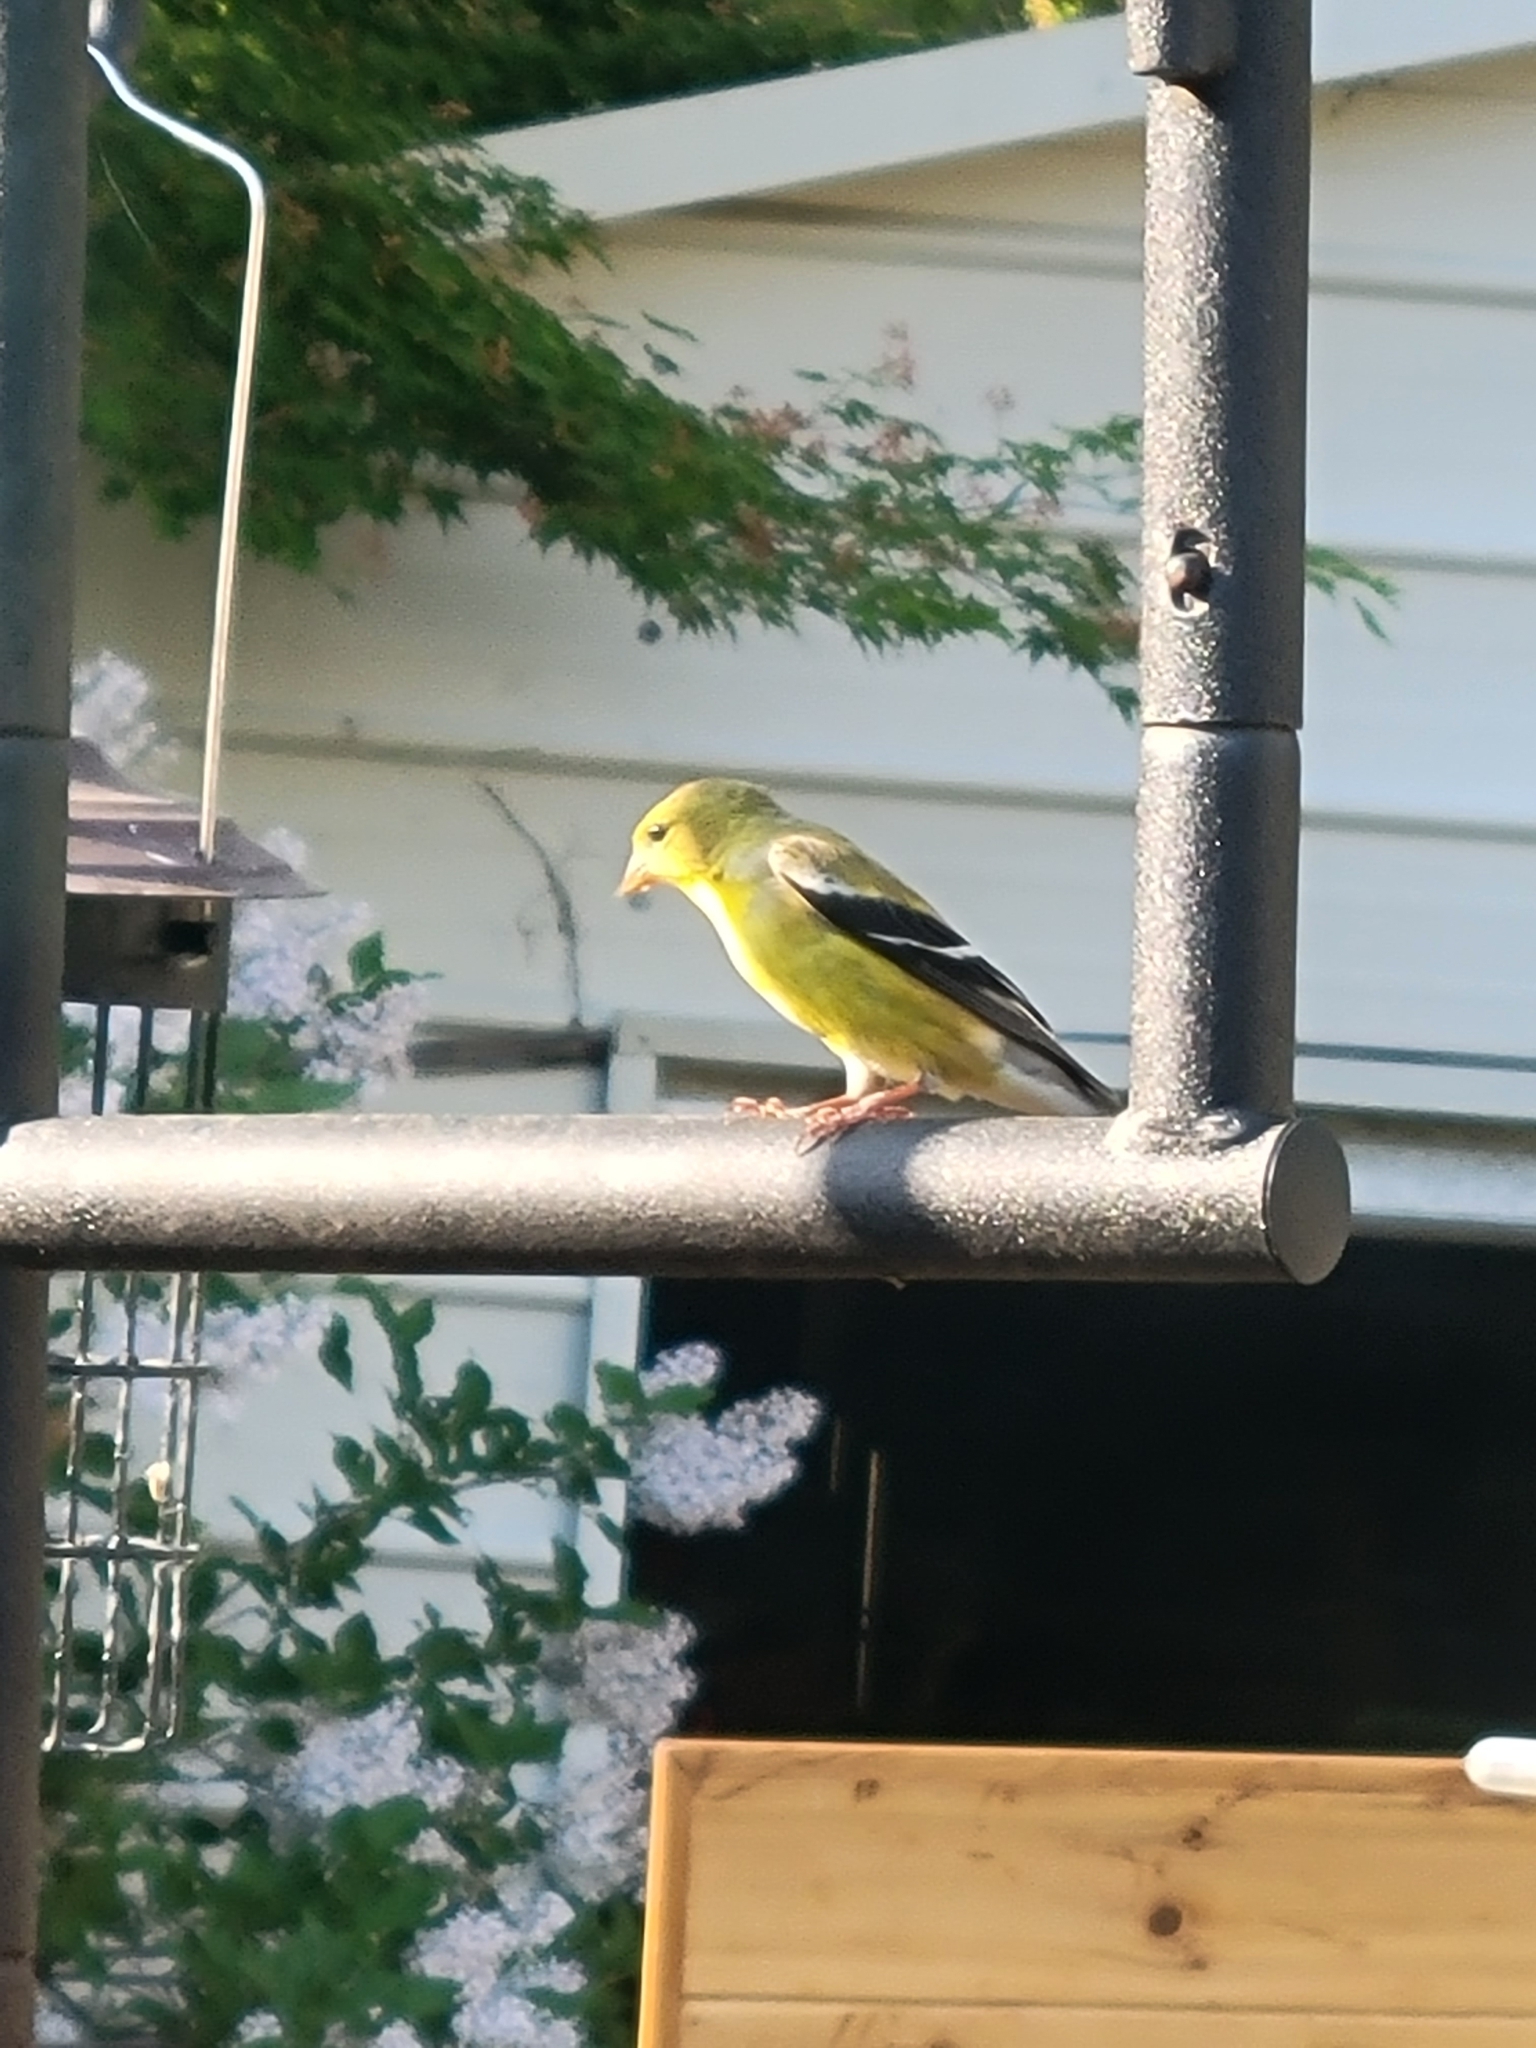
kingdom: Animalia
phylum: Chordata
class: Aves
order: Passeriformes
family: Fringillidae
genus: Spinus
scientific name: Spinus tristis
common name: American goldfinch
